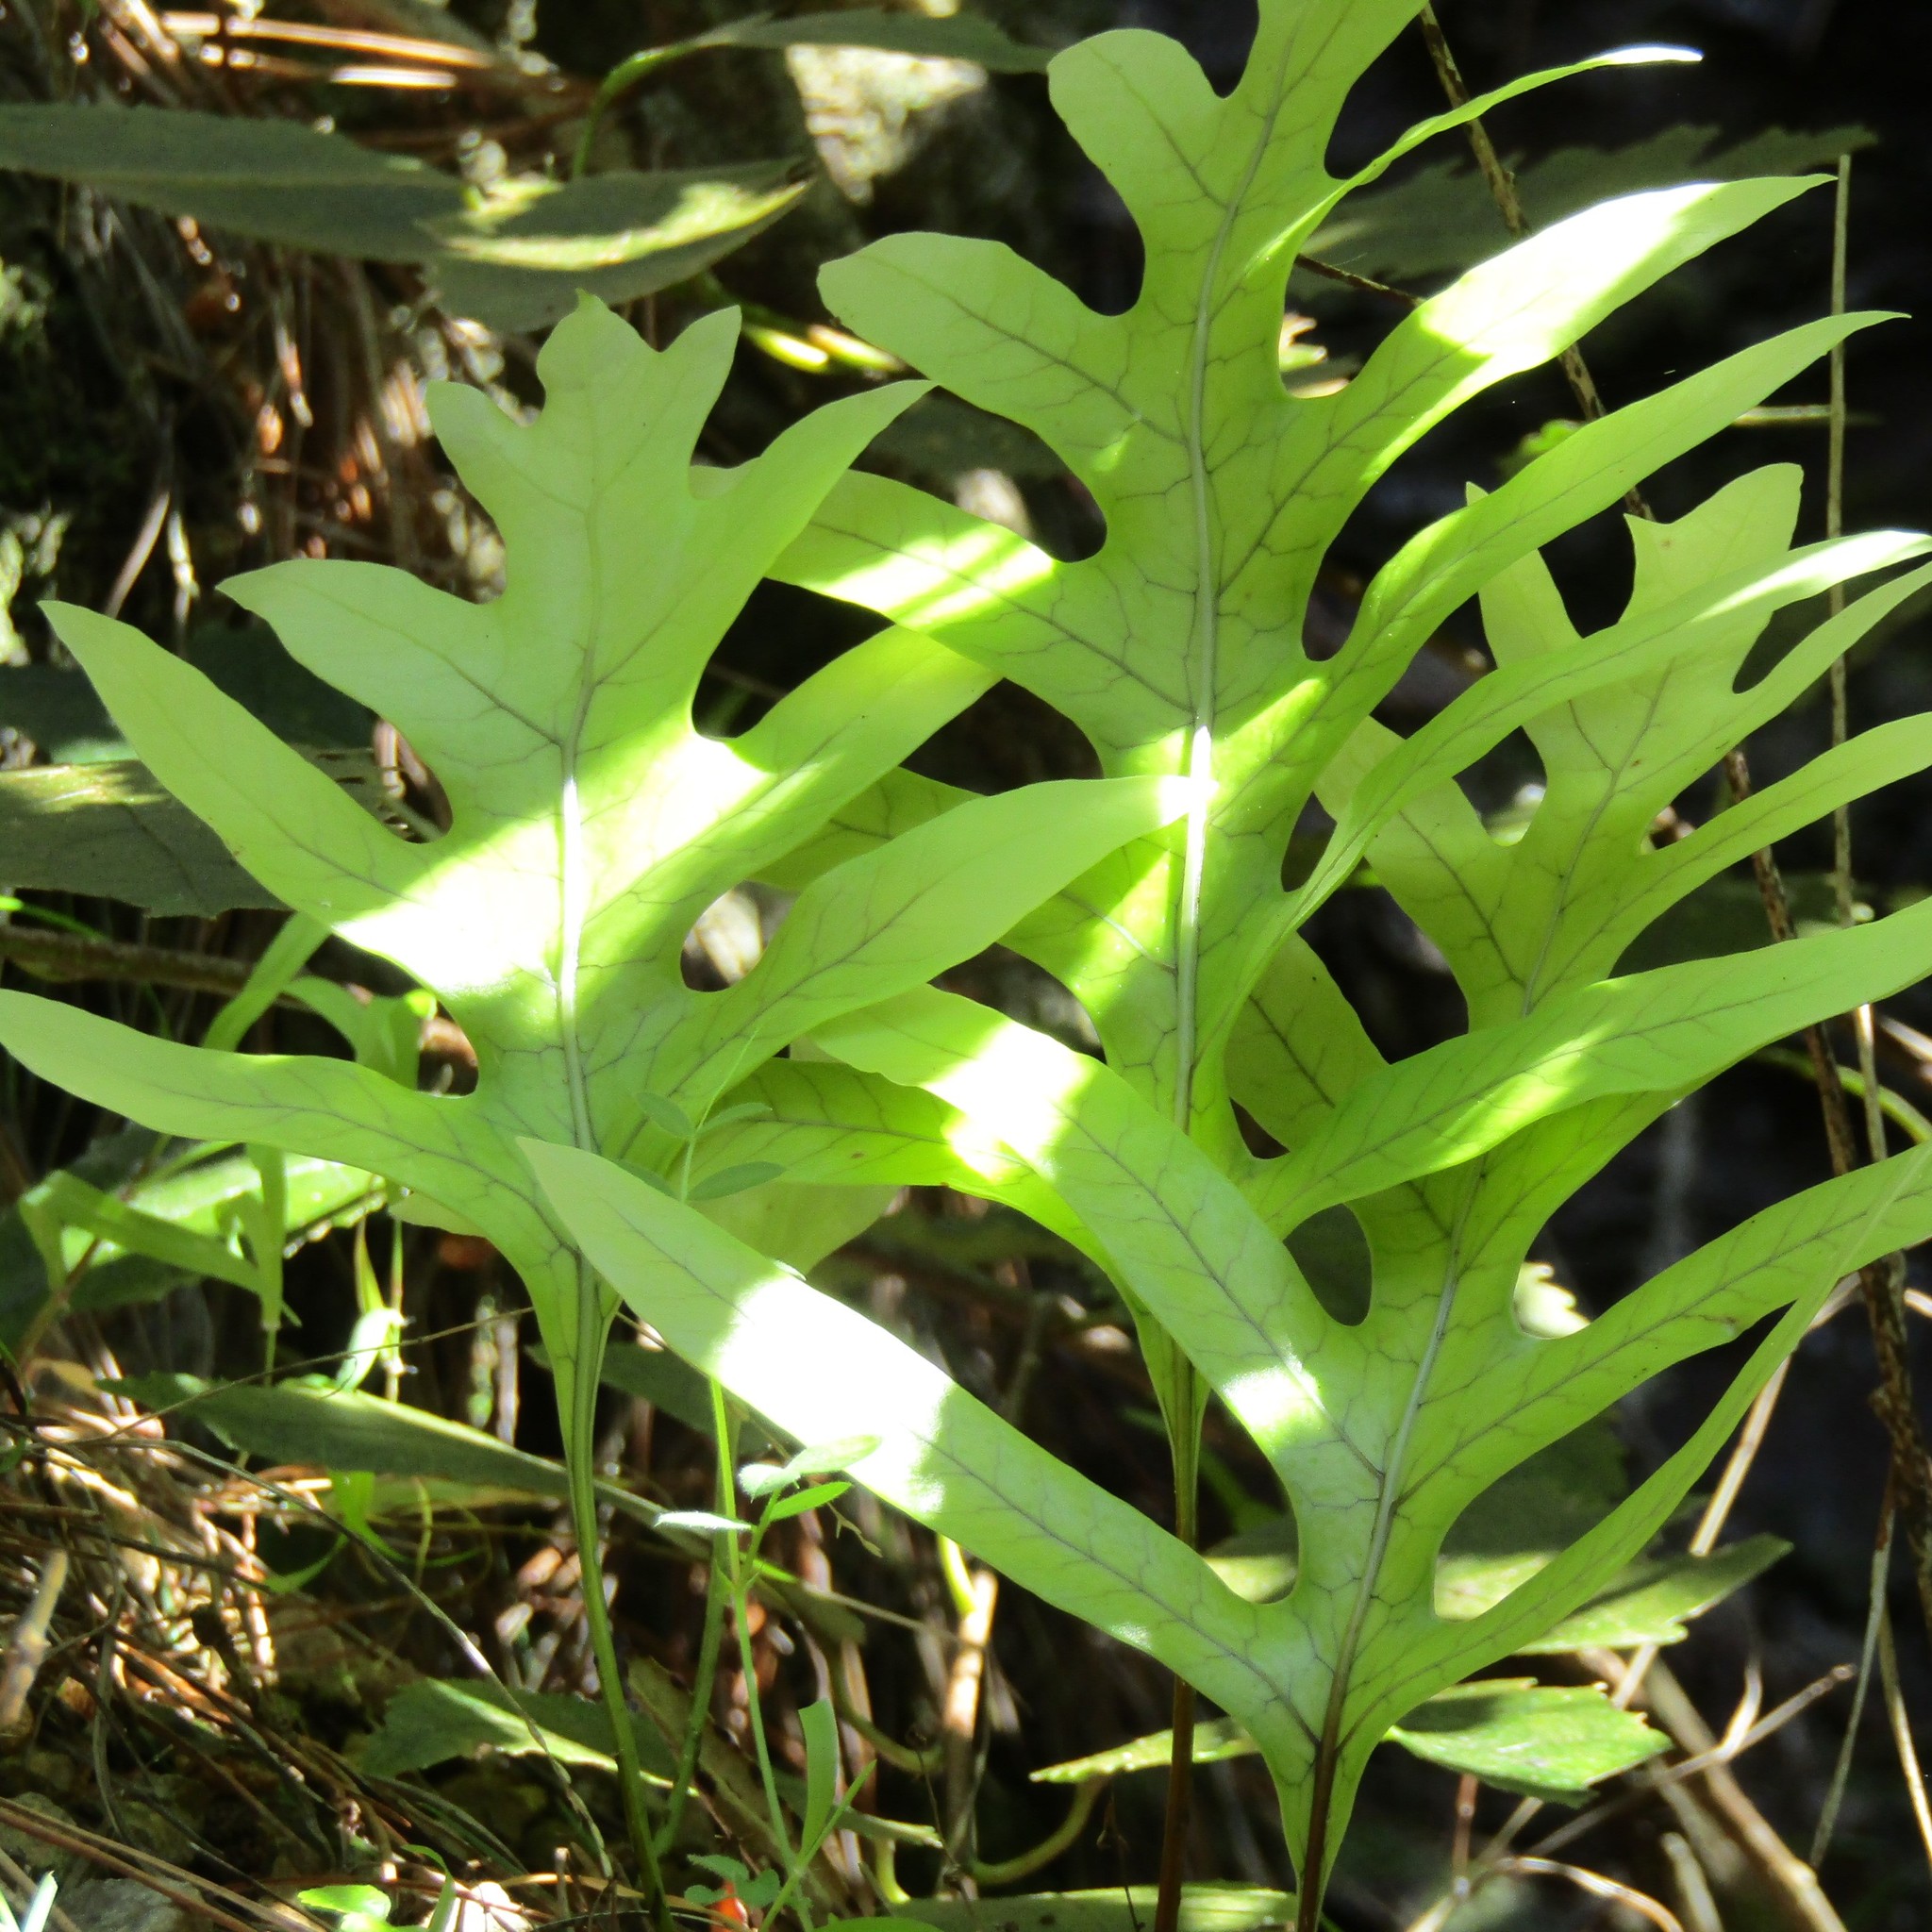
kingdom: Plantae
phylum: Tracheophyta
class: Polypodiopsida
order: Polypodiales
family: Polypodiaceae
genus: Lecanopteris
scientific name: Lecanopteris pustulata
